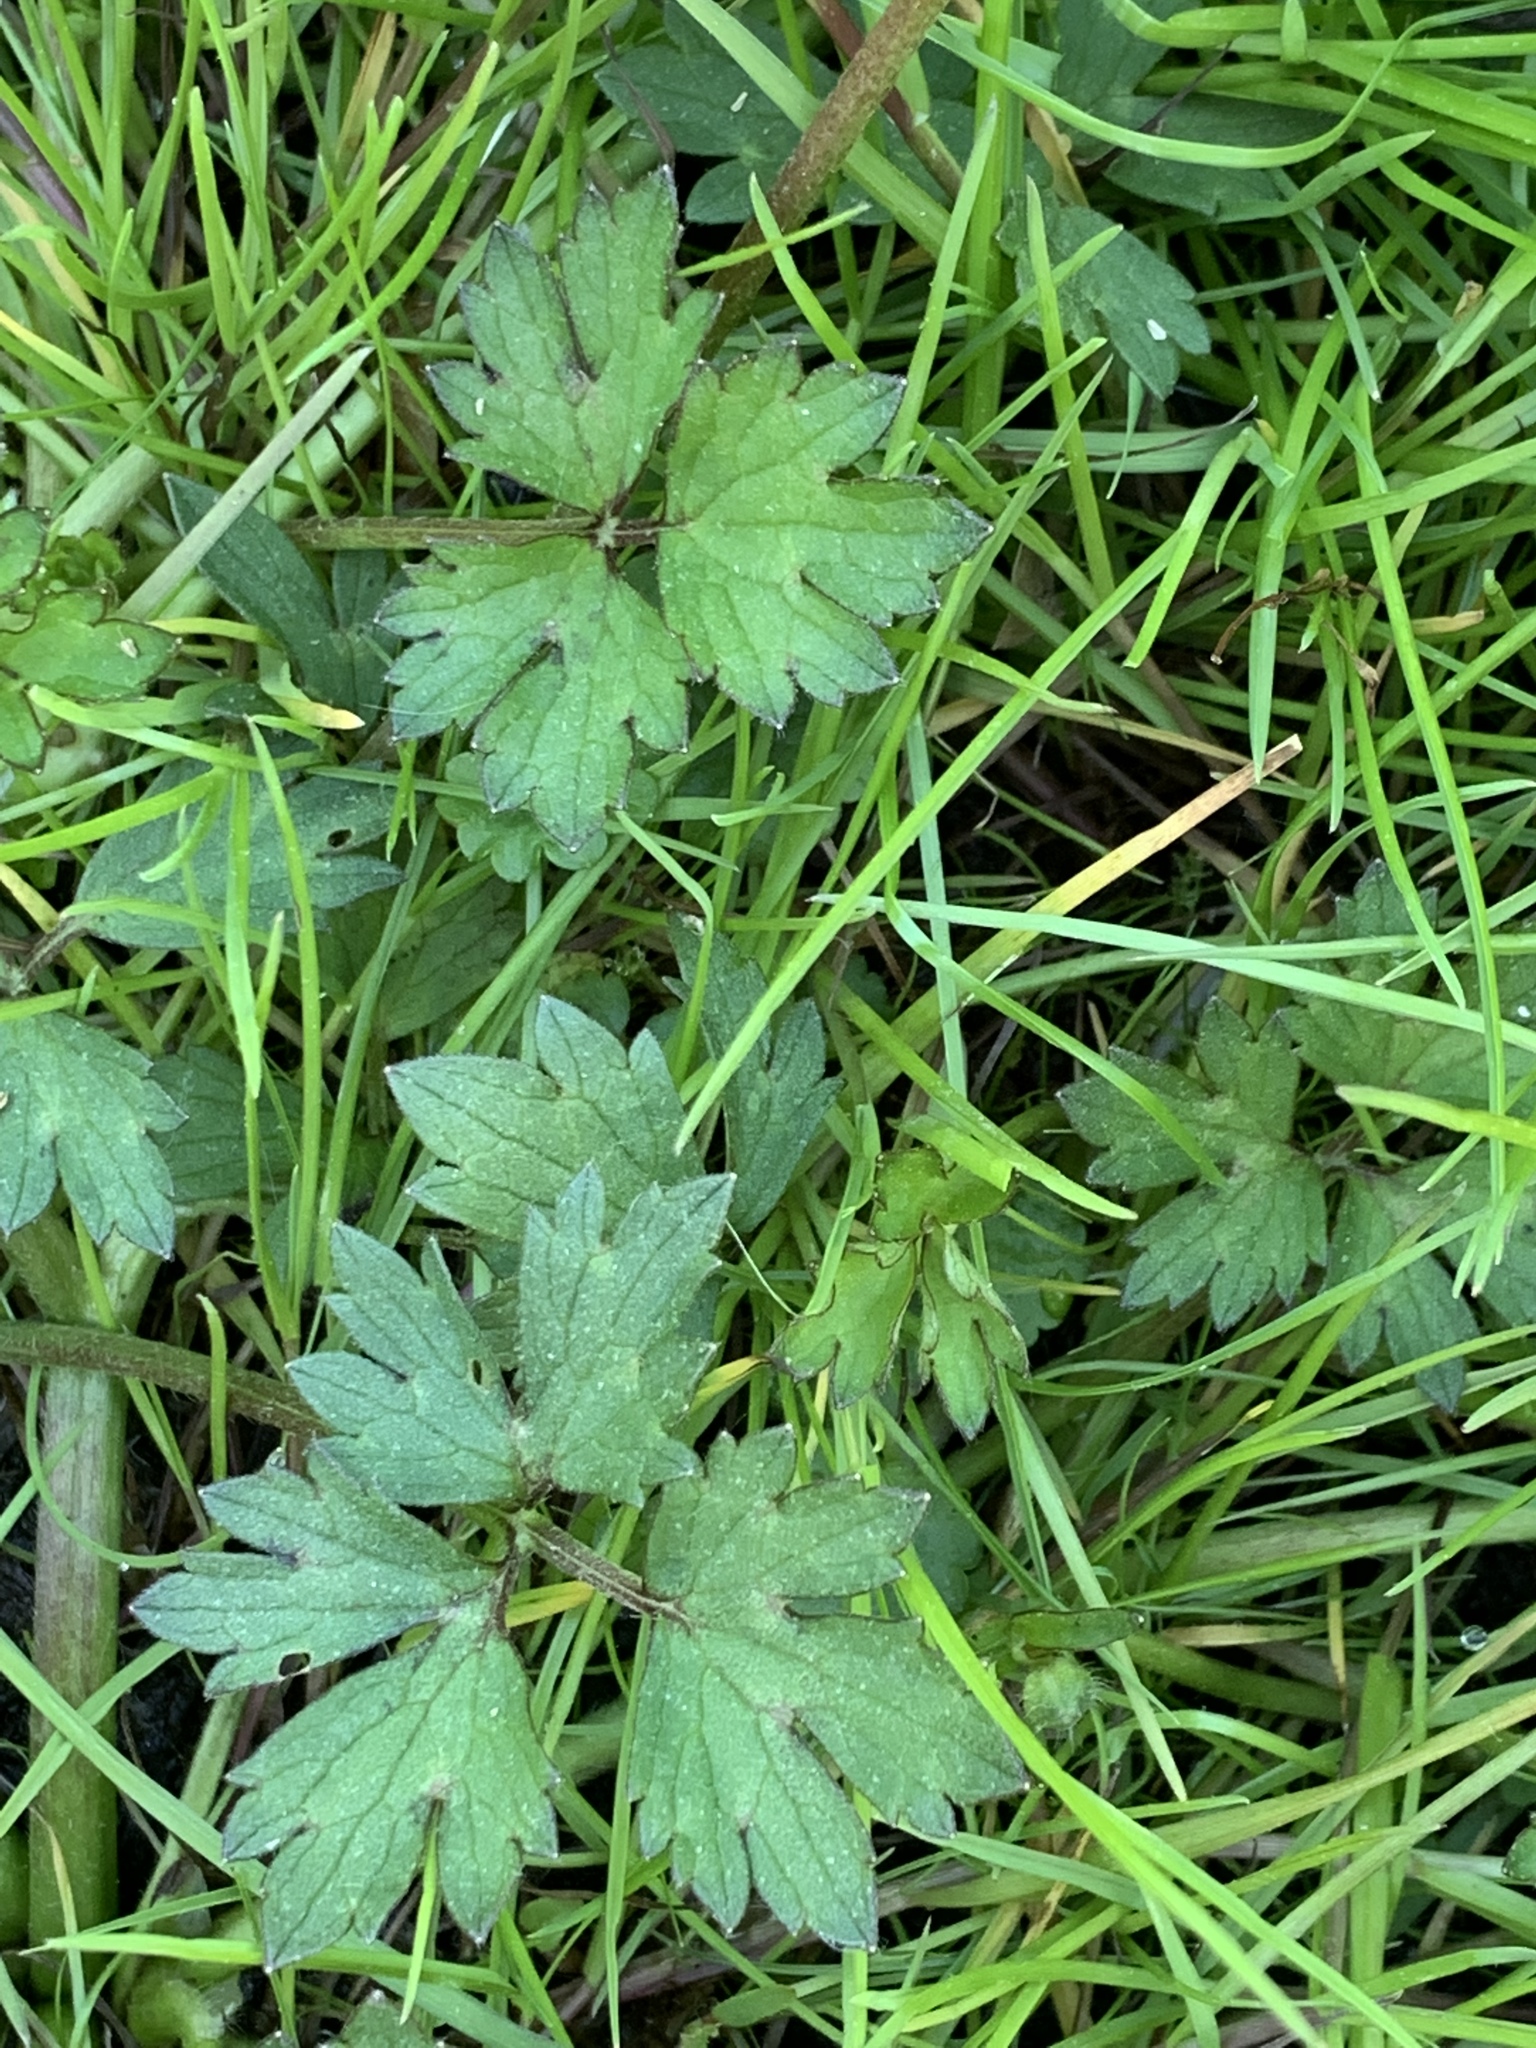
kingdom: Plantae
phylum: Tracheophyta
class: Magnoliopsida
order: Ranunculales
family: Ranunculaceae
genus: Ranunculus
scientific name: Ranunculus repens
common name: Creeping buttercup
